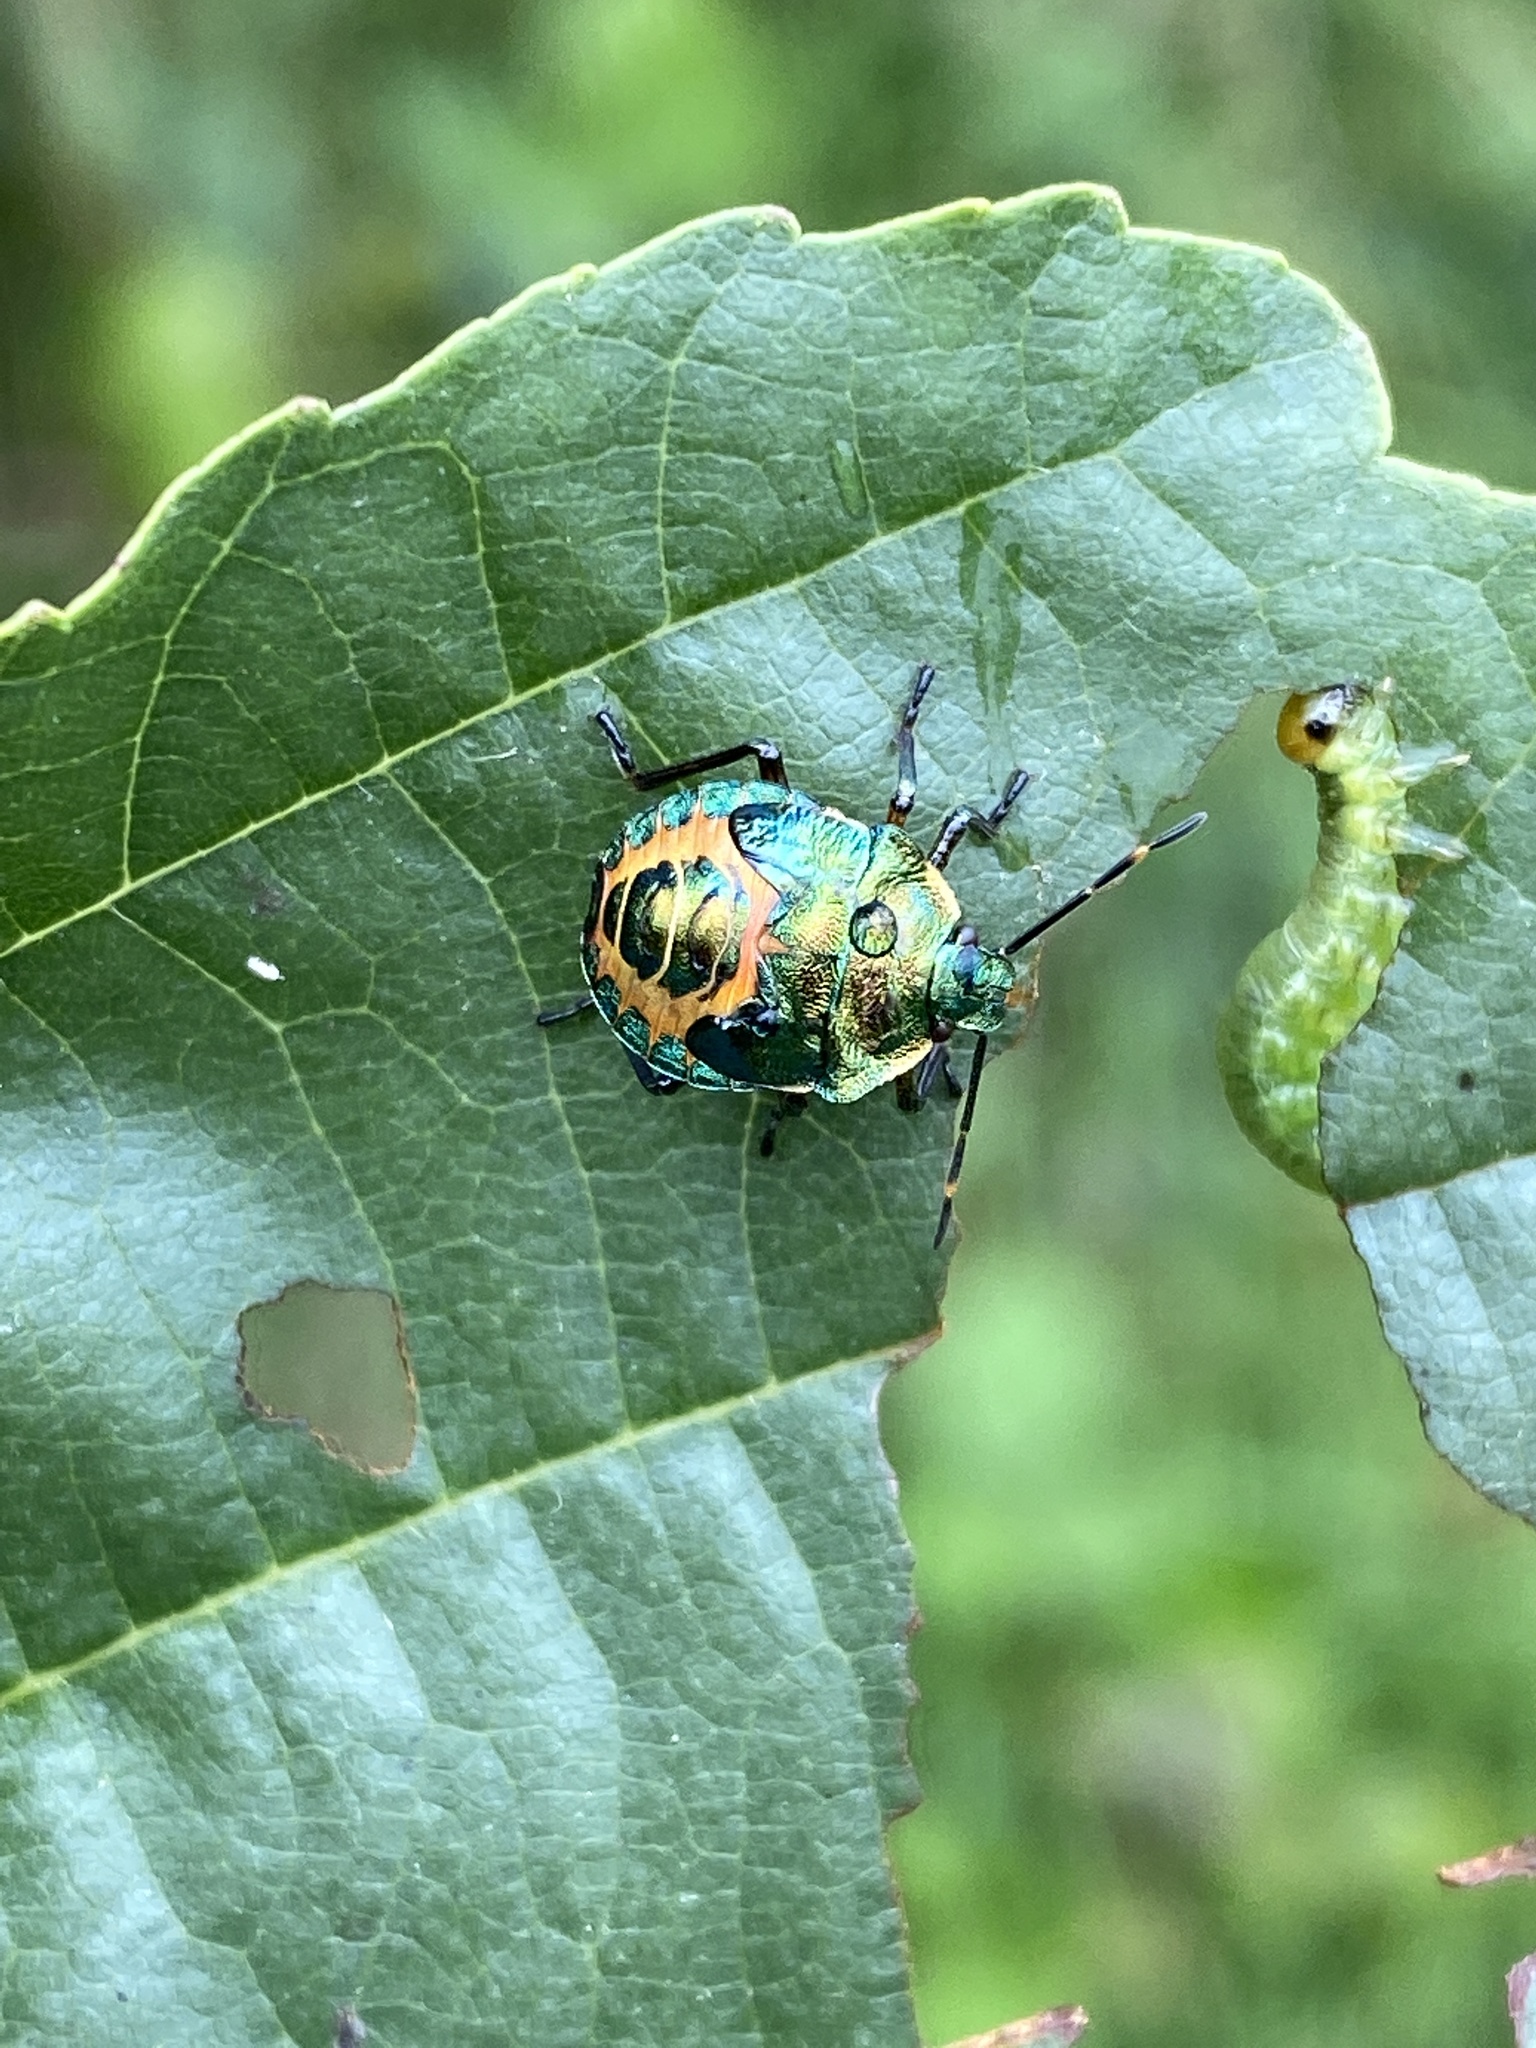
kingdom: Animalia
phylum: Arthropoda
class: Insecta
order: Hemiptera
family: Pentatomidae
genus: Troilus
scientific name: Troilus luridus
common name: Bronze shieldbug
